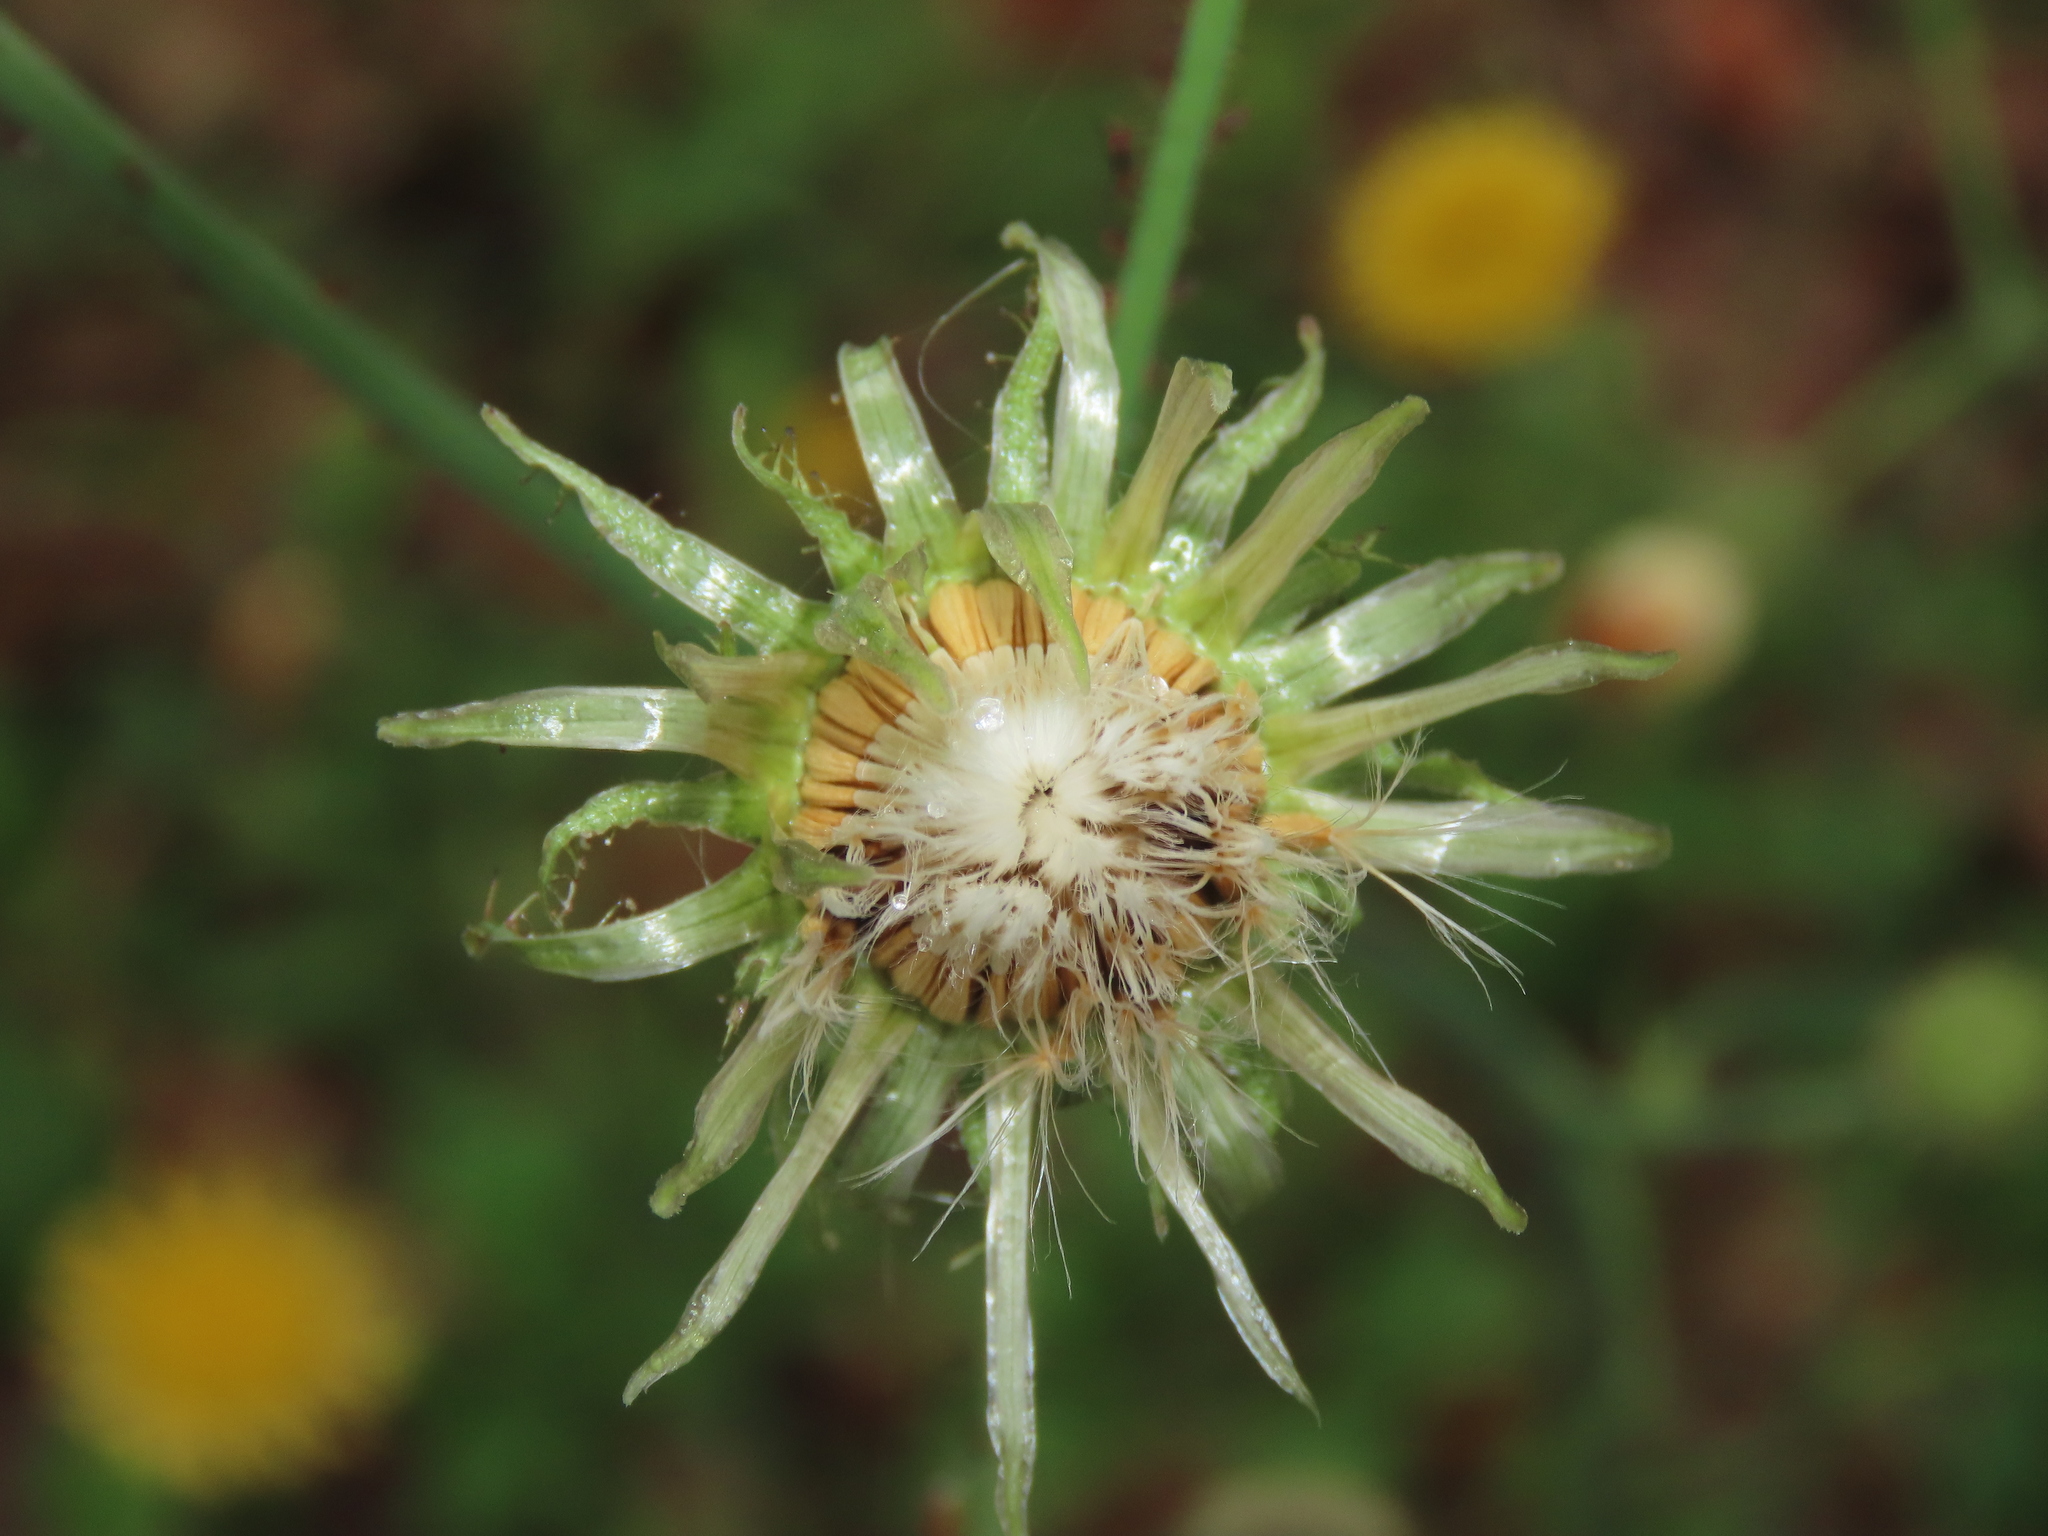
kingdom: Plantae
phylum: Tracheophyta
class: Magnoliopsida
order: Asterales
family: Asteraceae
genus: Sonchus
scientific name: Sonchus oleraceus
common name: Common sowthistle
